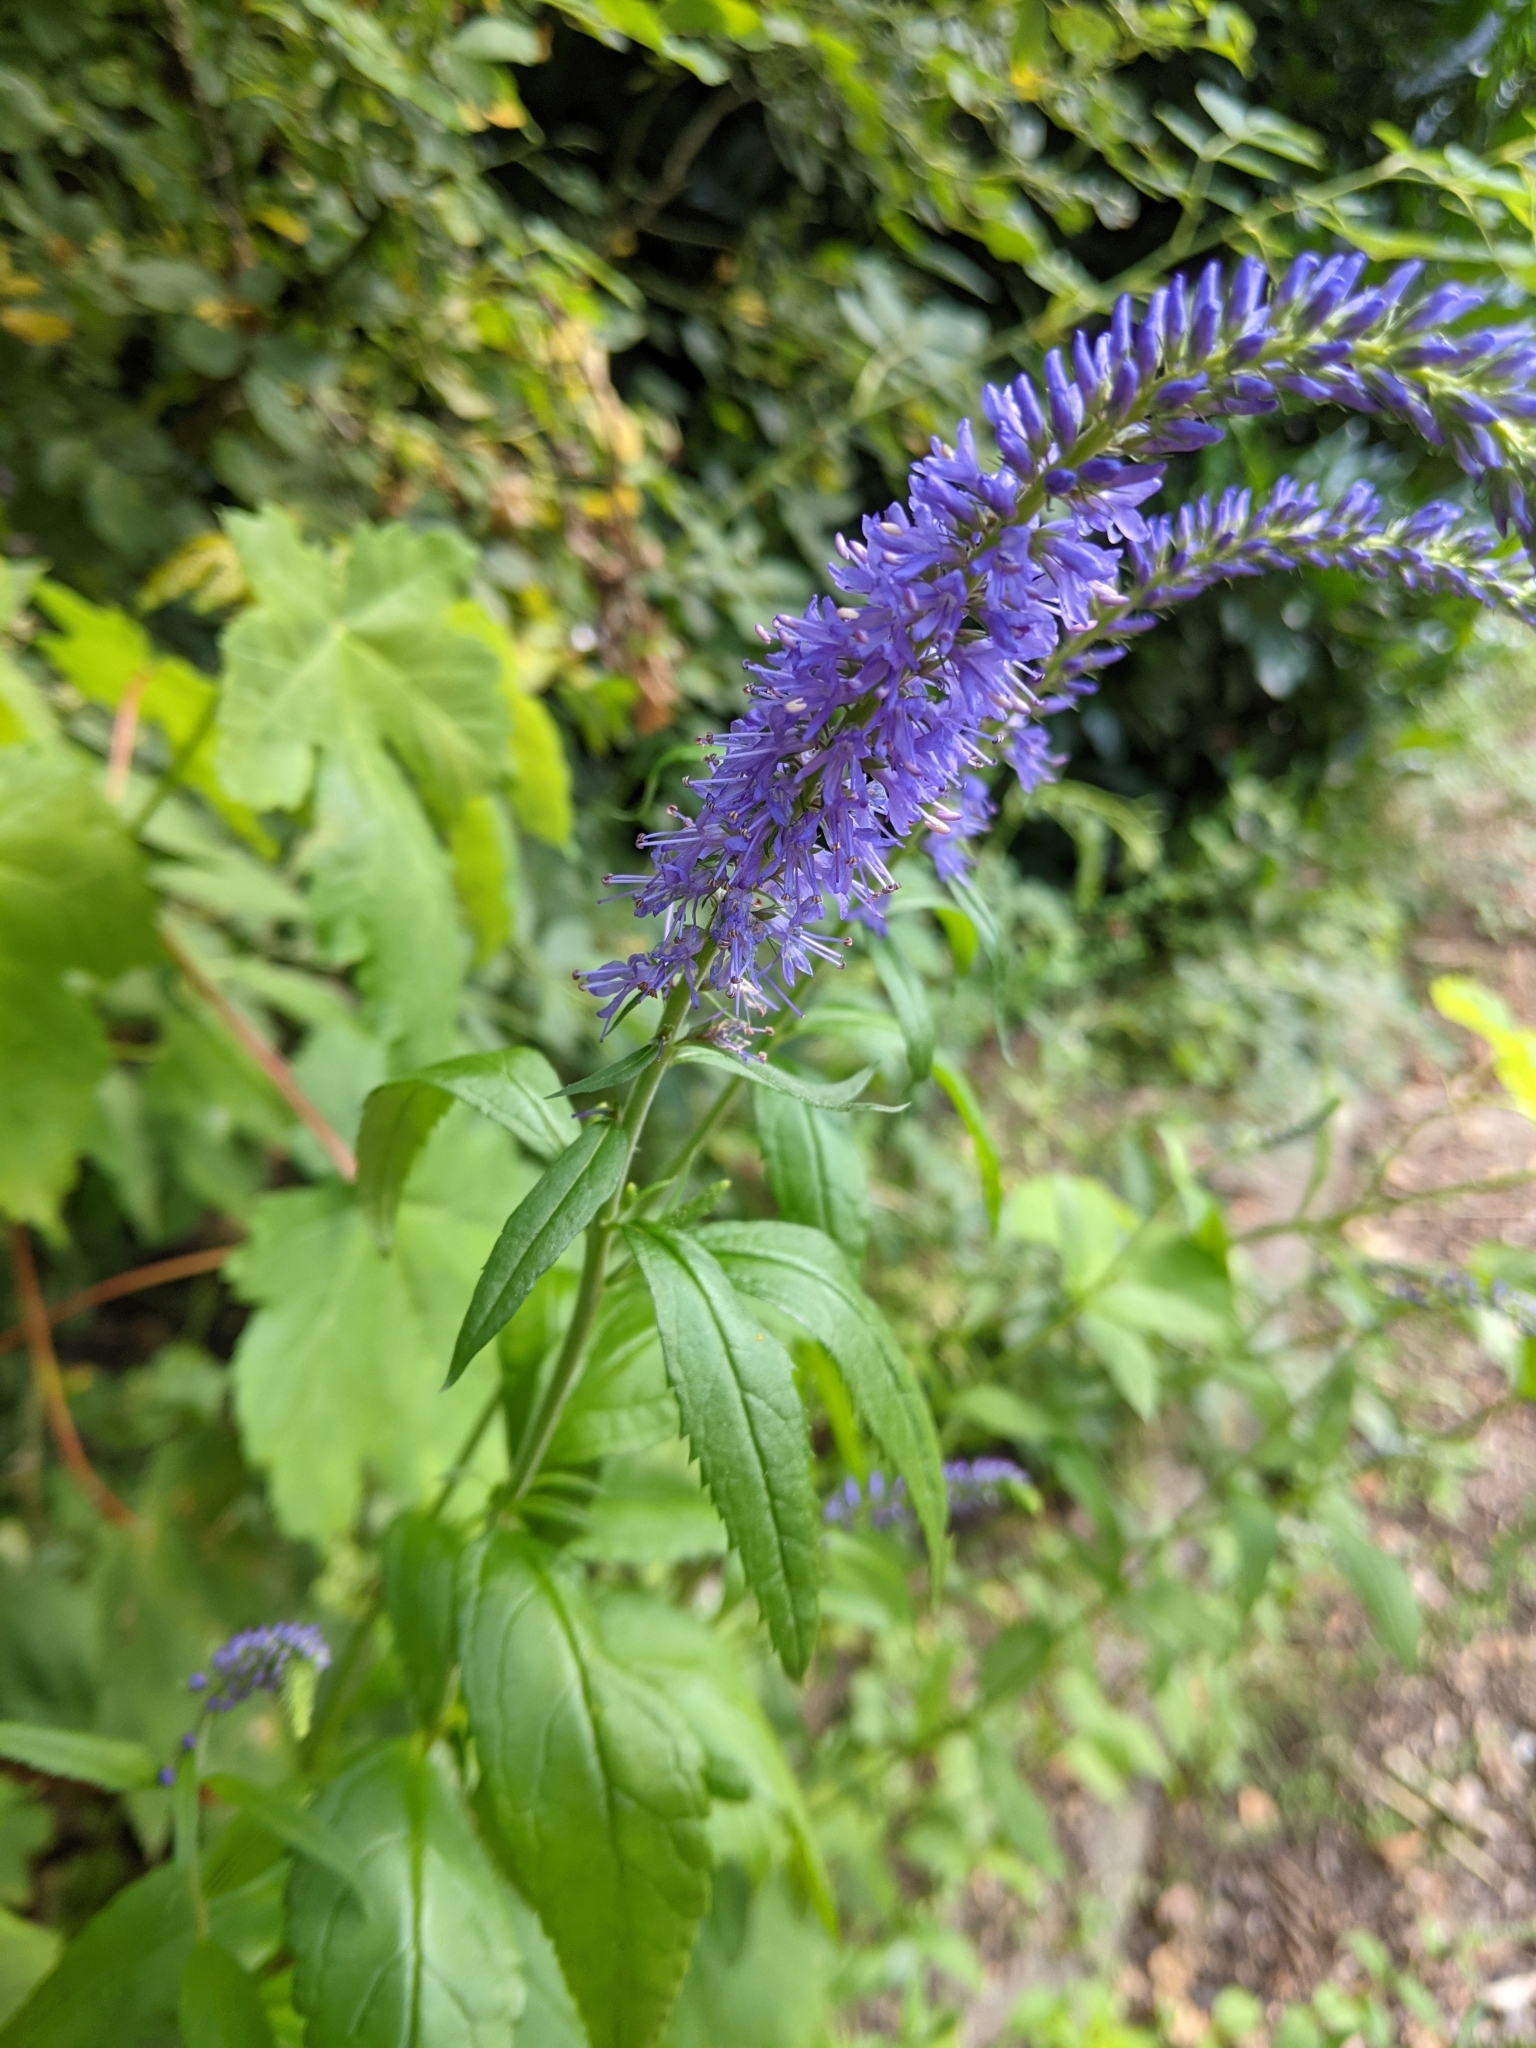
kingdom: Plantae
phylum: Tracheophyta
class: Magnoliopsida
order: Lamiales
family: Plantaginaceae
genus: Veronica
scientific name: Veronica longifolia
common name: Garden speedwell
